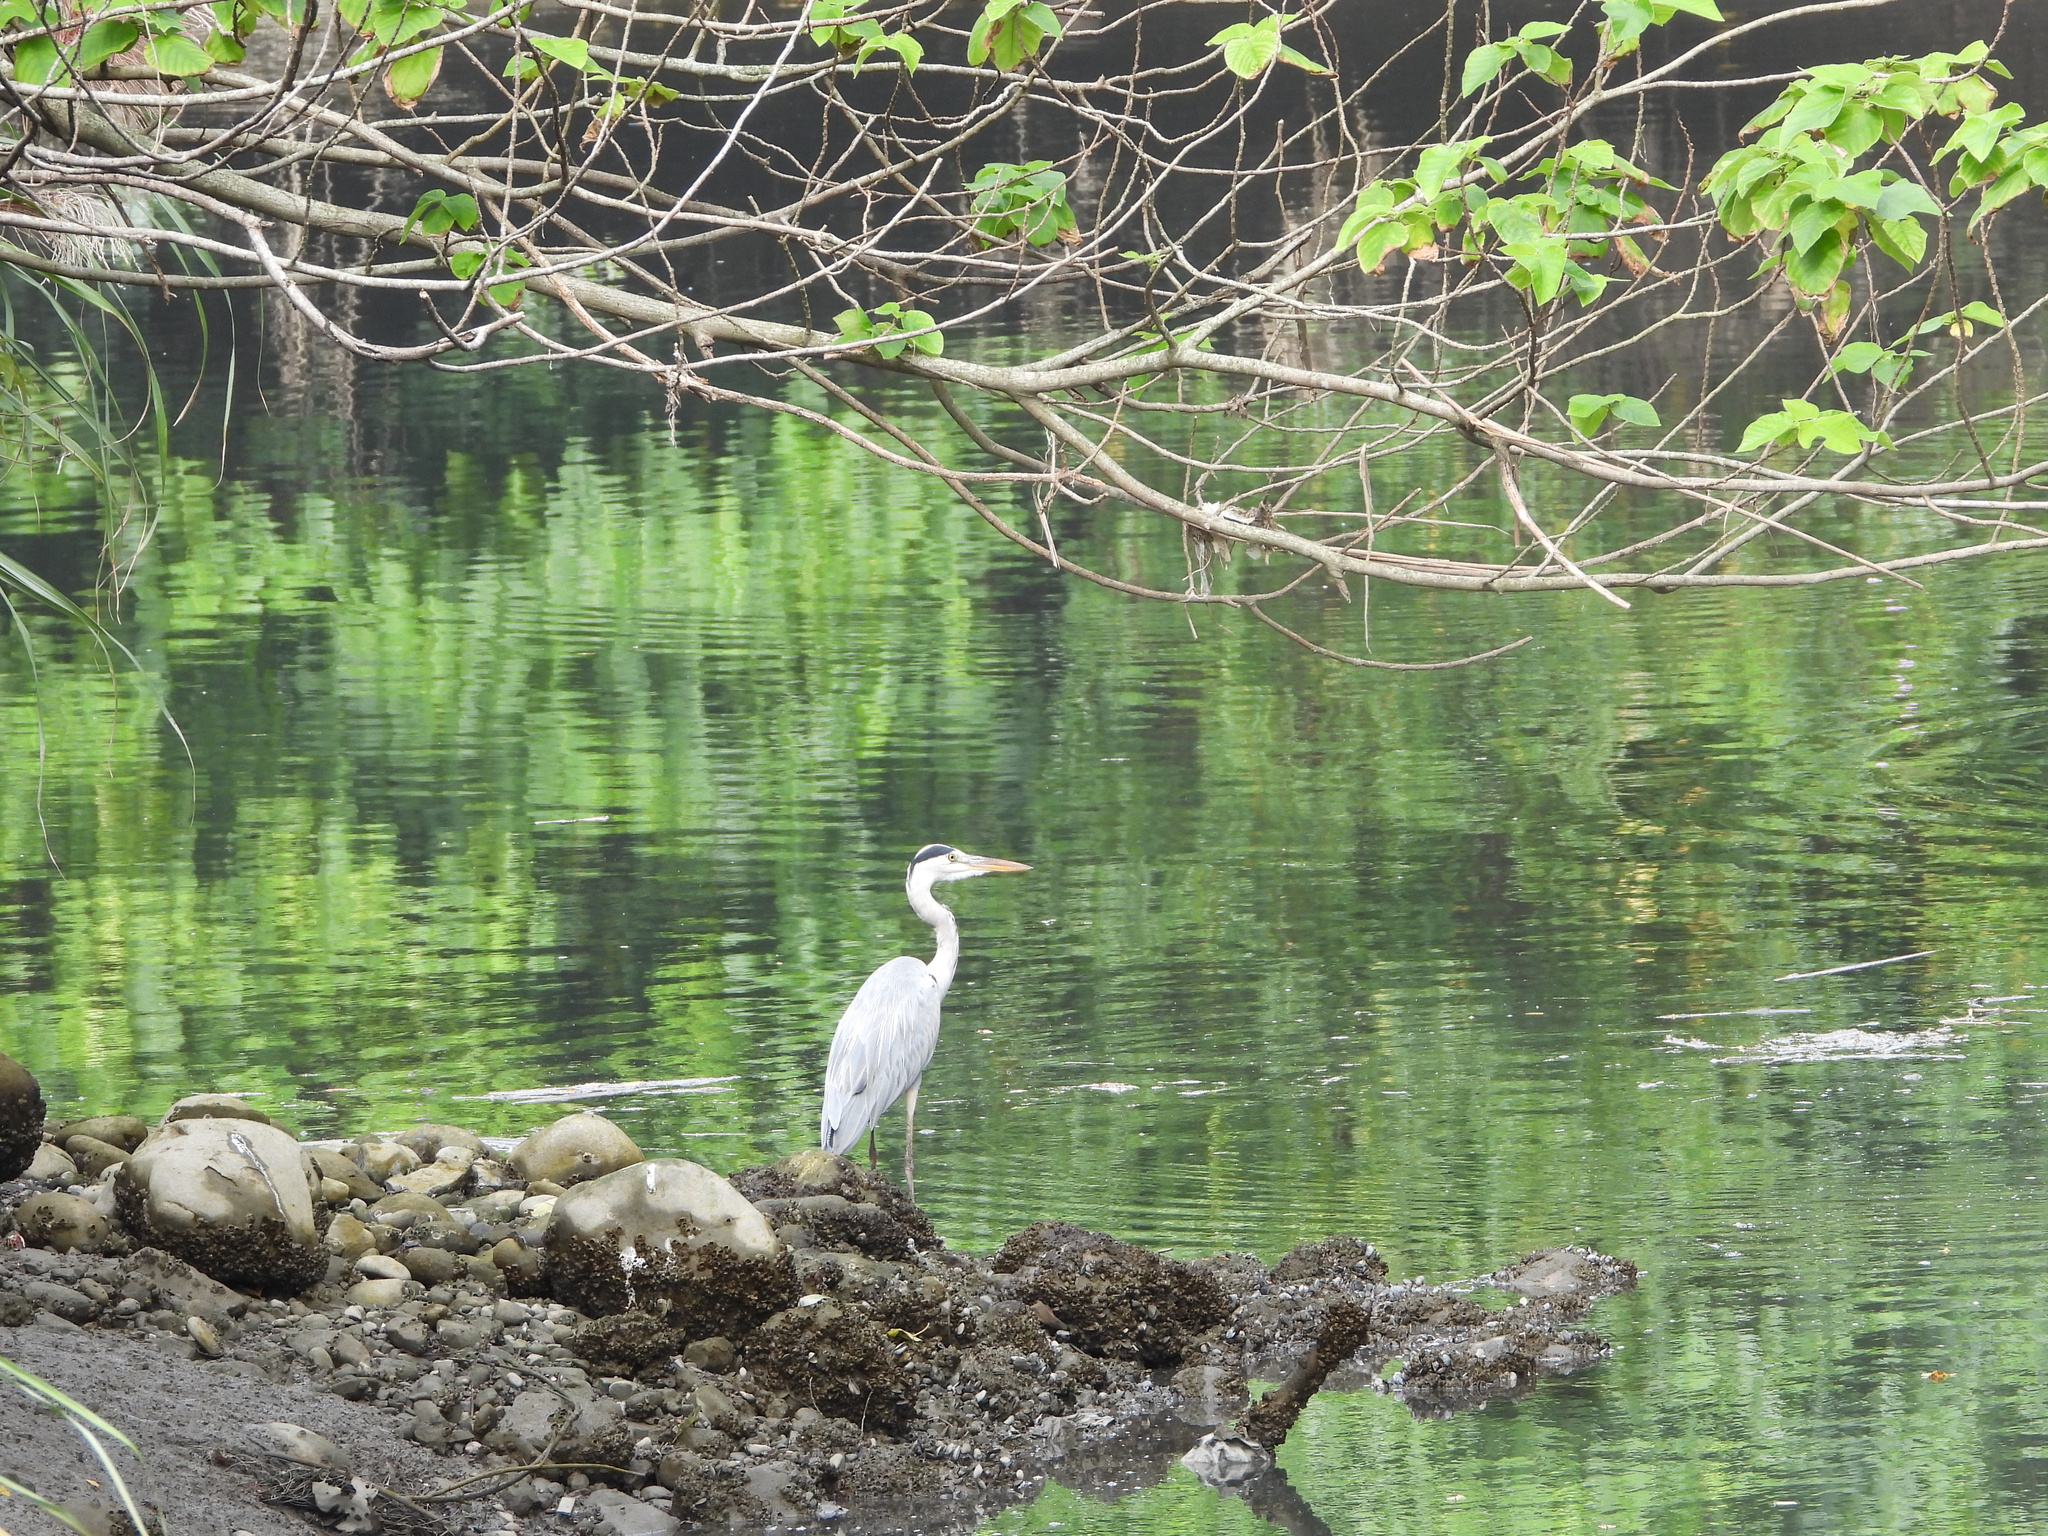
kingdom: Animalia
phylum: Chordata
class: Aves
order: Pelecaniformes
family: Ardeidae
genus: Ardea
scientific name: Ardea cinerea
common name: Grey heron
